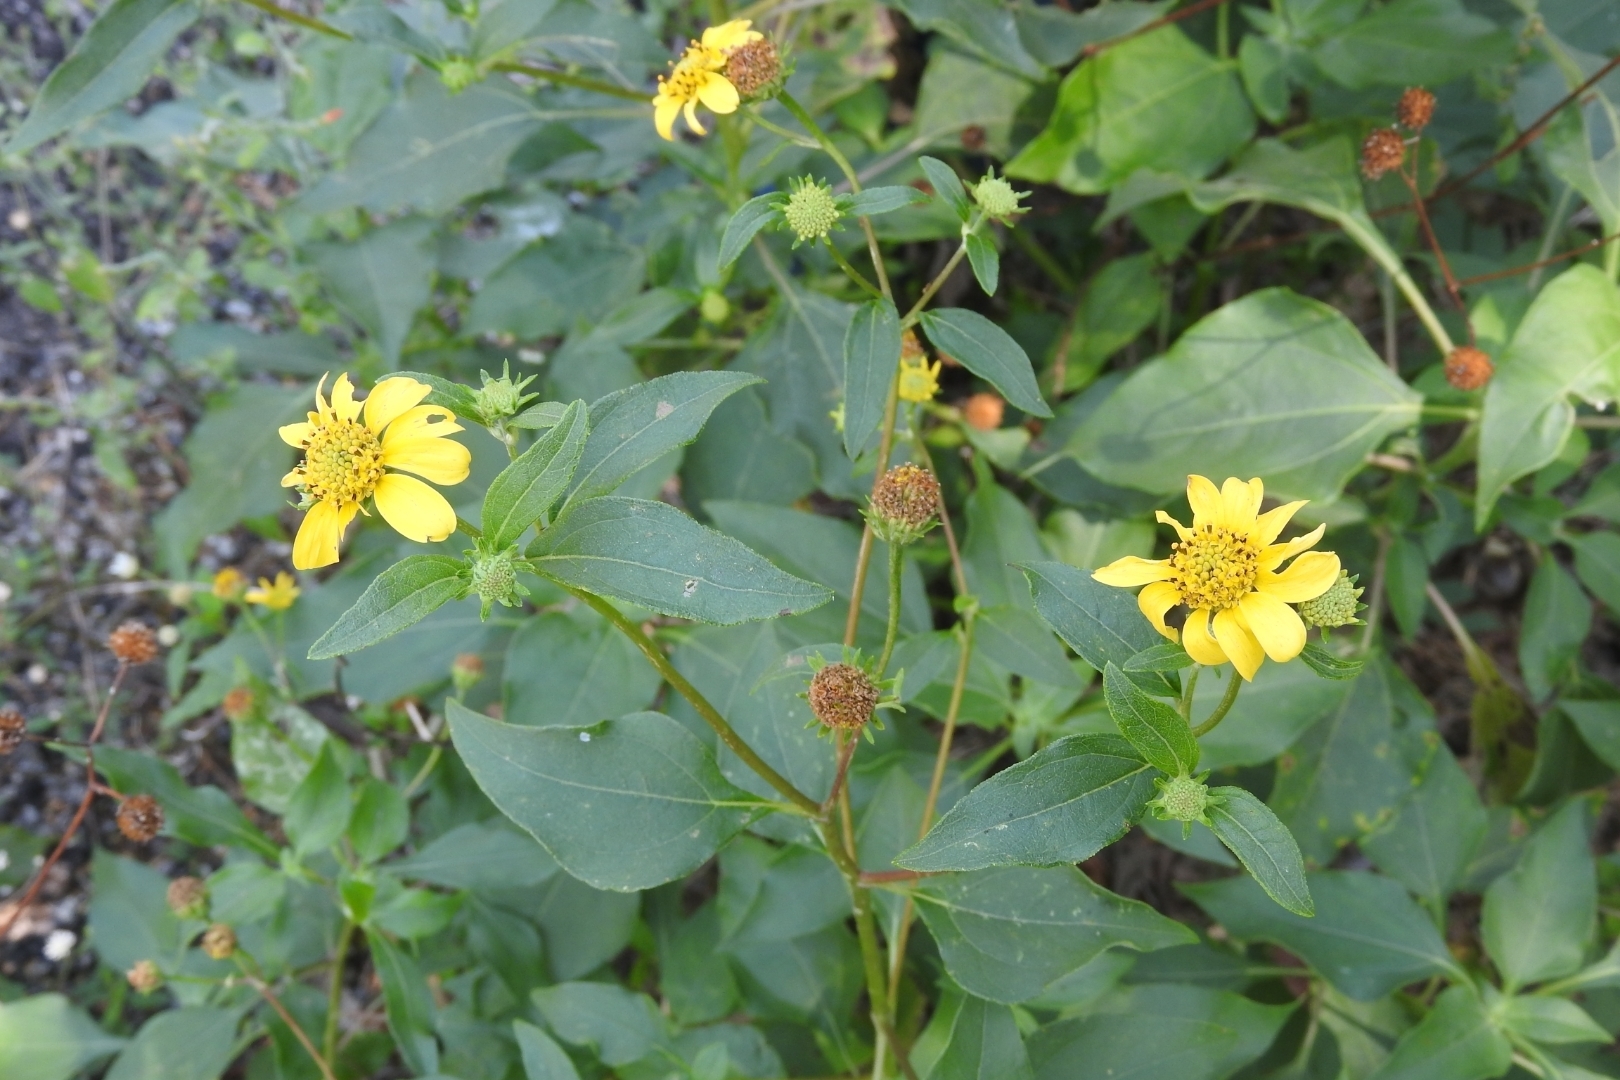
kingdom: Plantae
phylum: Tracheophyta
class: Magnoliopsida
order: Asterales
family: Asteraceae
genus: Viguiera
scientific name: Viguiera dentata
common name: Toothleaf
